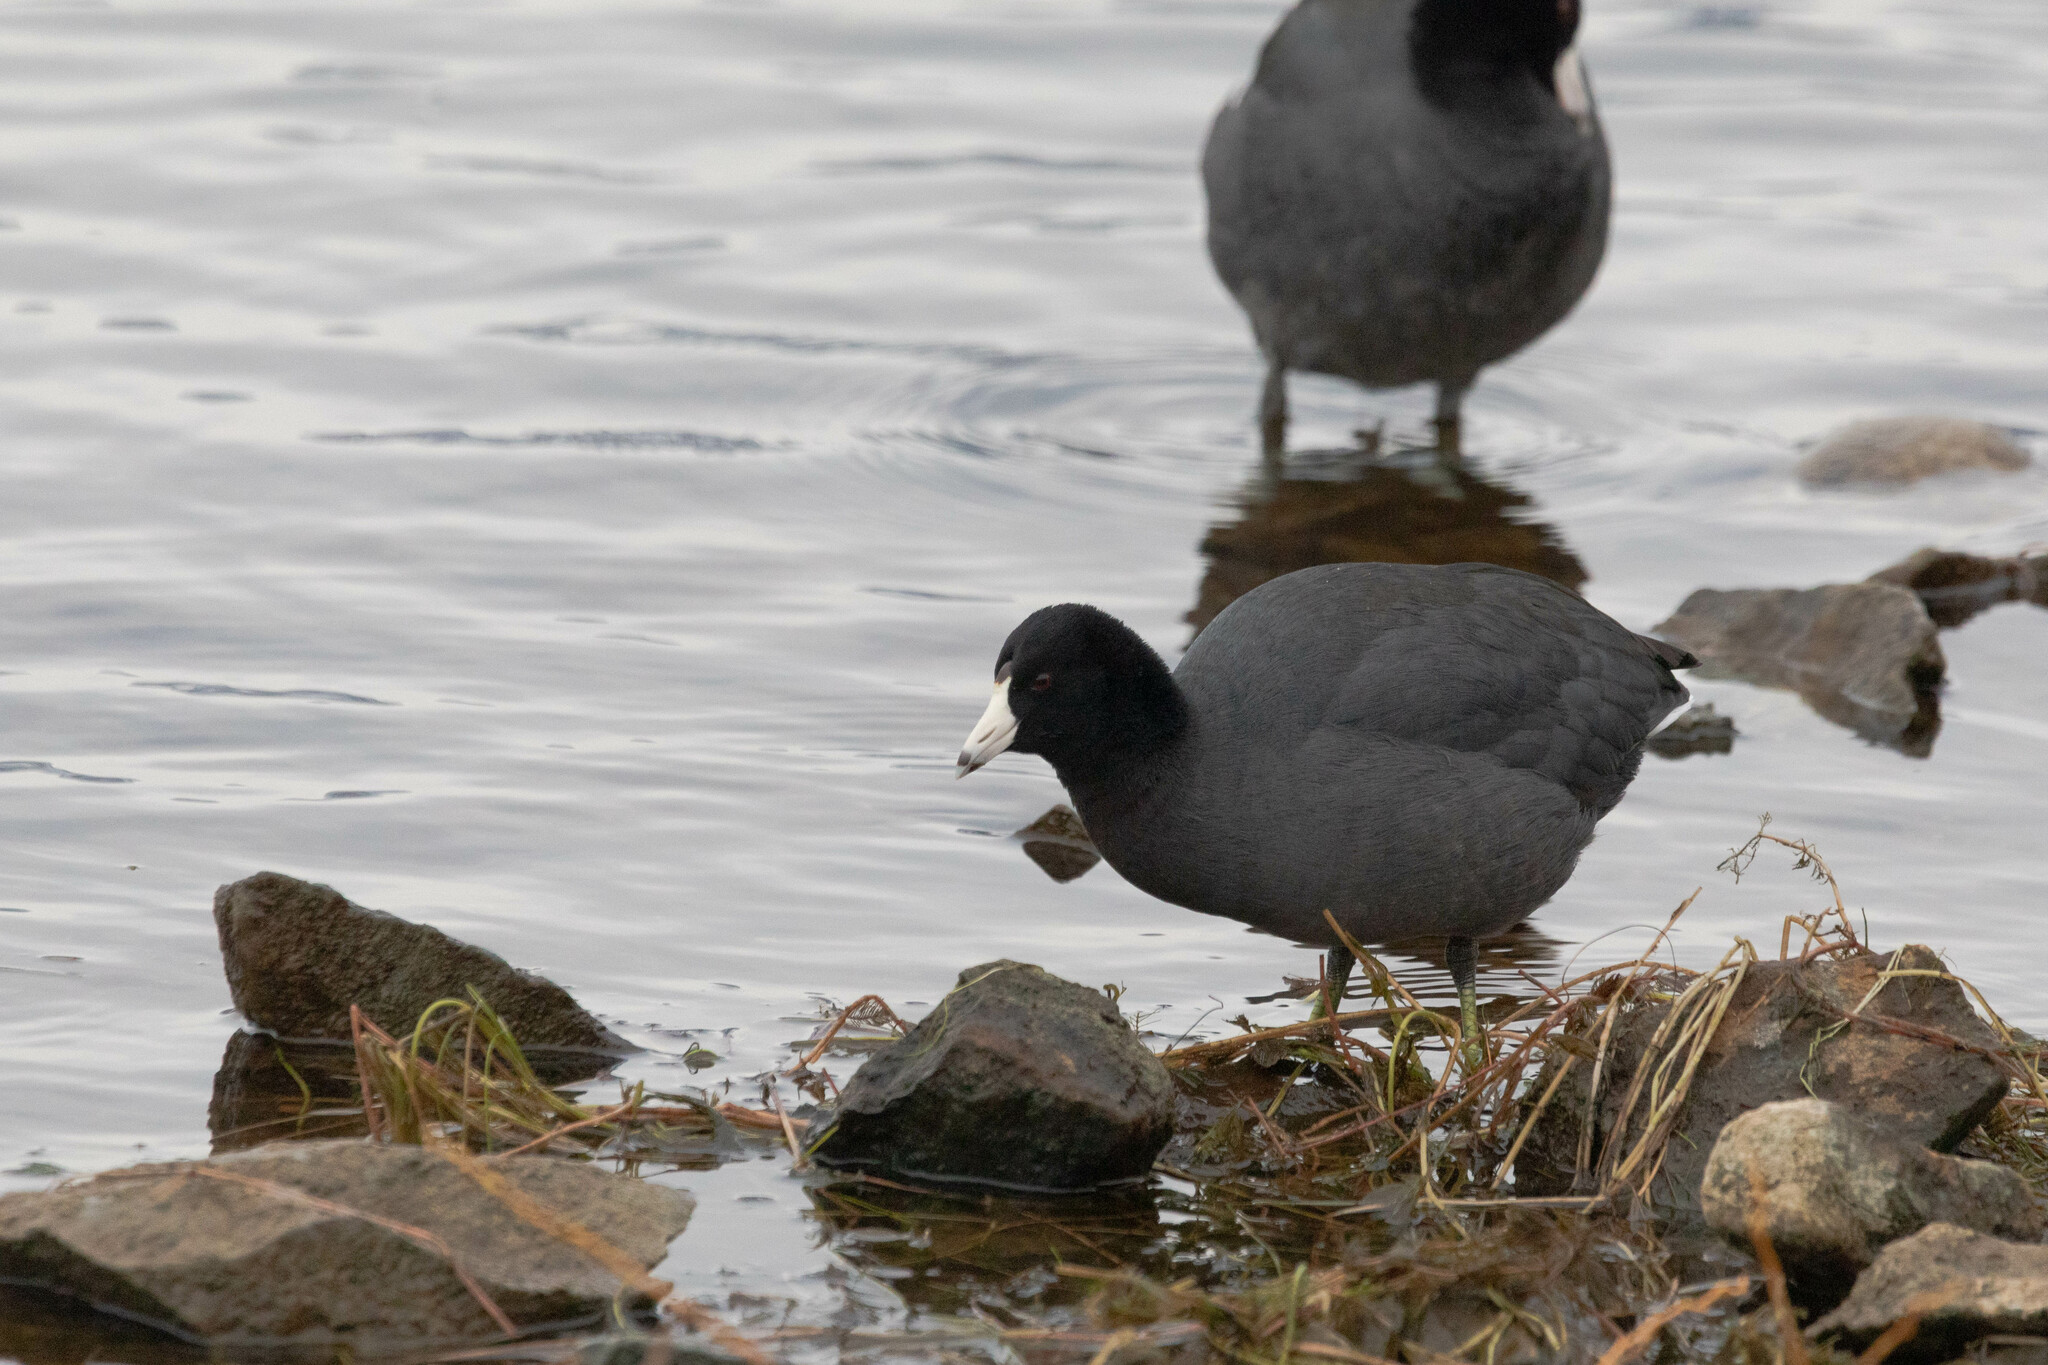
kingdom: Animalia
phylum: Chordata
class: Aves
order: Gruiformes
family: Rallidae
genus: Fulica
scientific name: Fulica americana
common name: American coot
